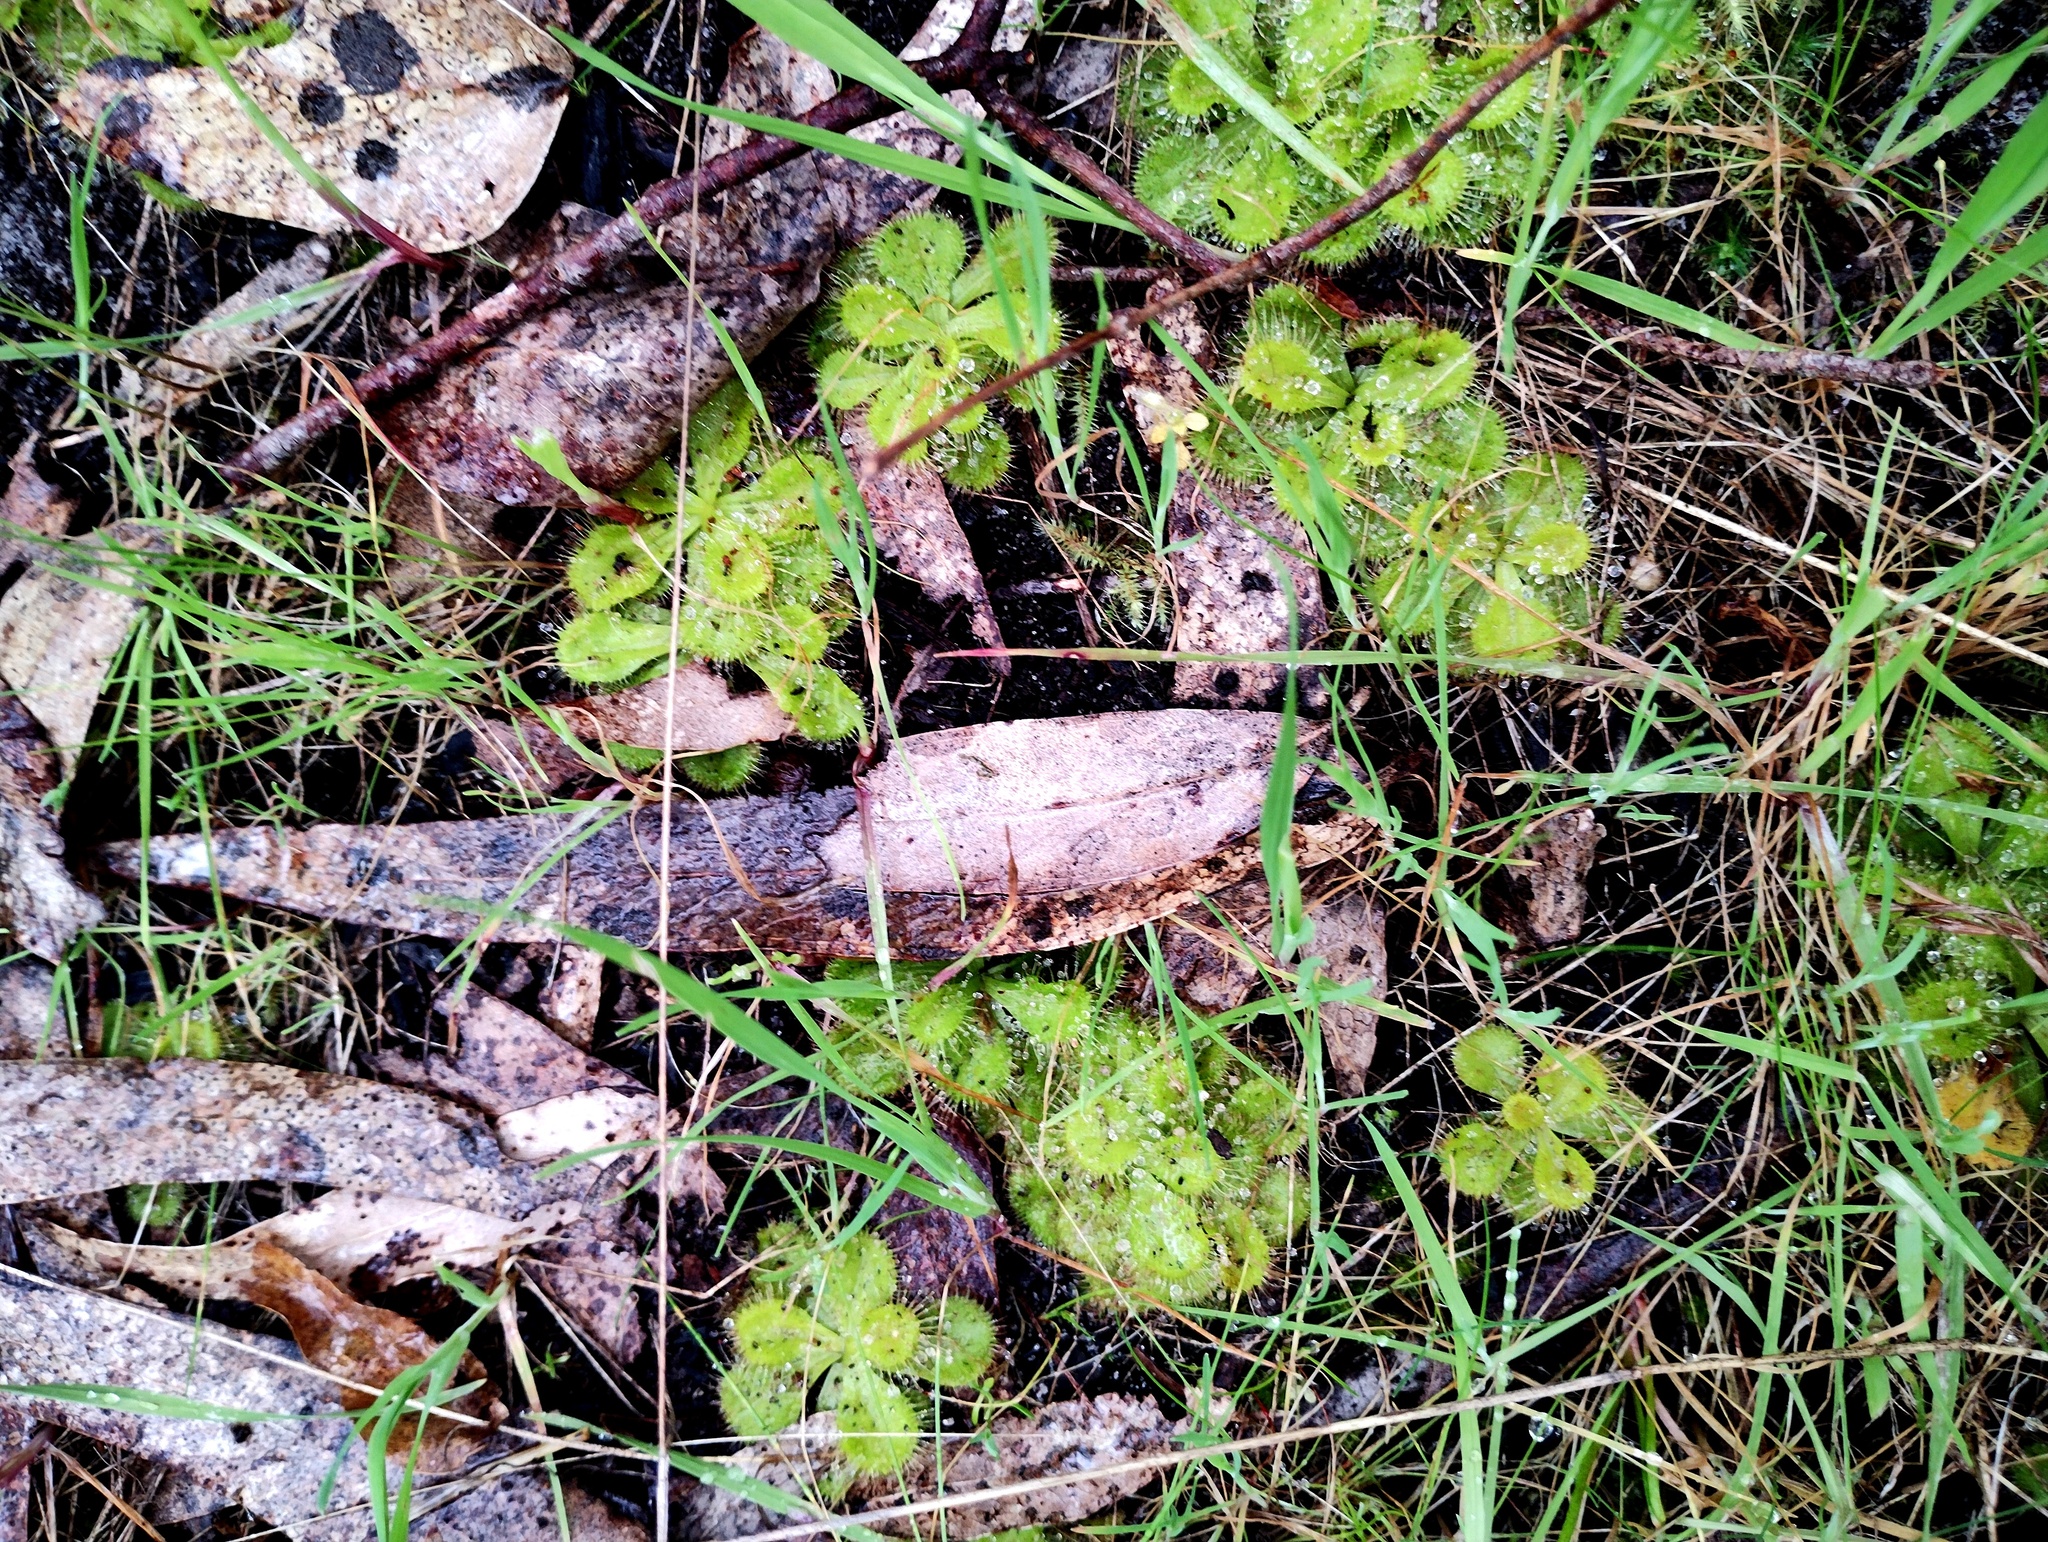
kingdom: Plantae
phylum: Tracheophyta
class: Magnoliopsida
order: Caryophyllales
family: Droseraceae
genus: Drosera
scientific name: Drosera aberrans
